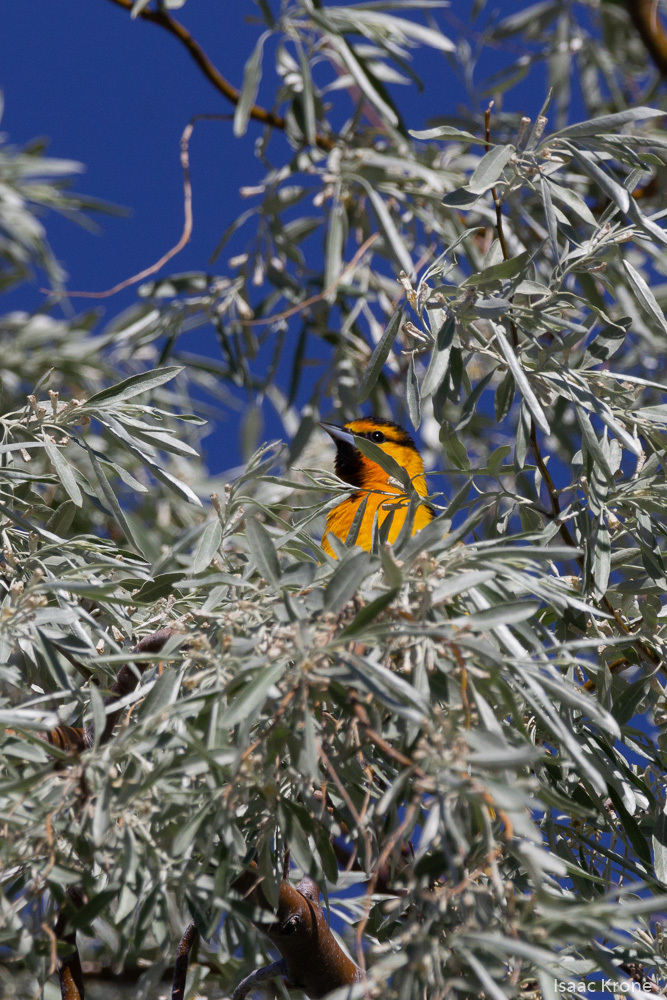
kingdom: Animalia
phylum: Chordata
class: Aves
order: Passeriformes
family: Icteridae
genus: Icterus
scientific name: Icterus bullockii
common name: Bullock's oriole
